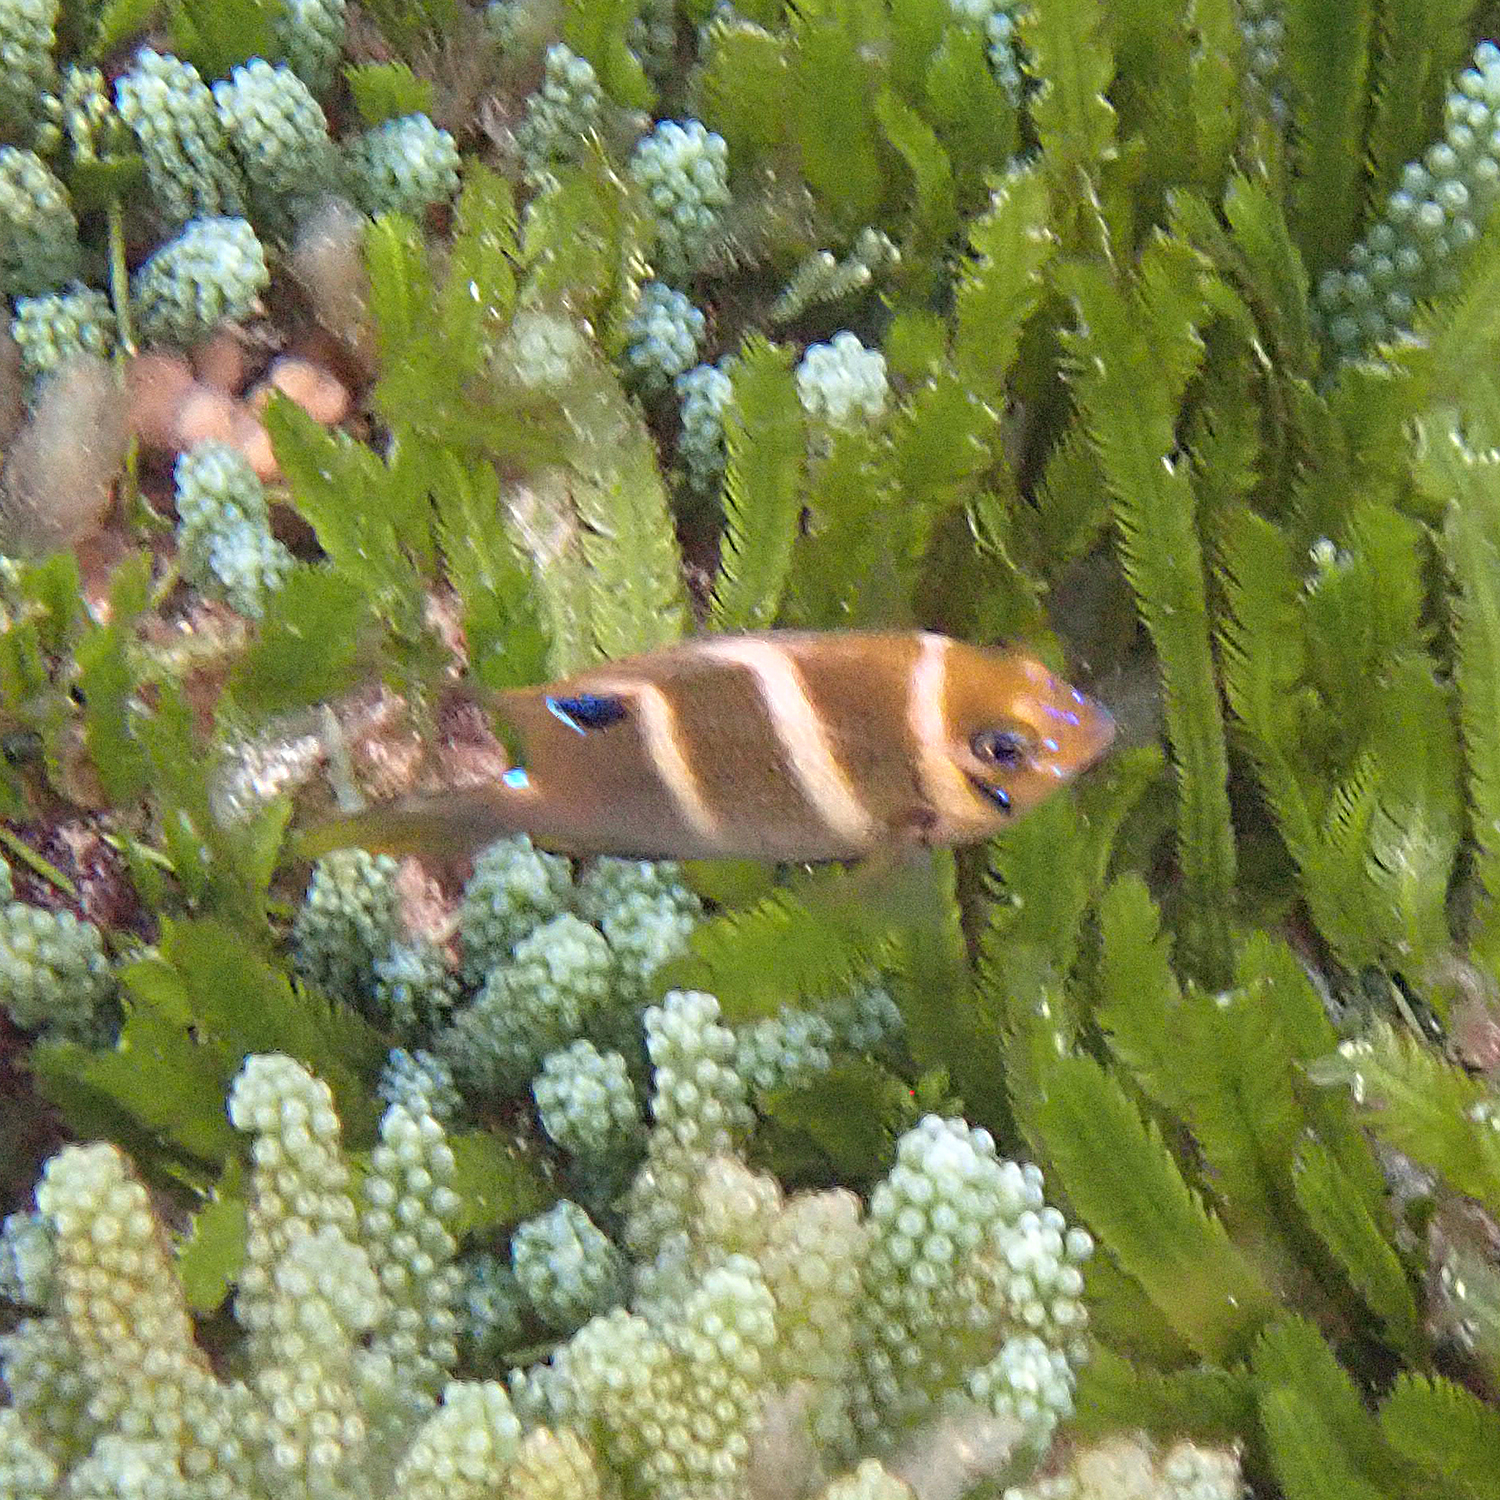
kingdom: Animalia
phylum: Chordata
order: Perciformes
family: Pomacentridae
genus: Parma
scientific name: Parma polylepis
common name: Banded parma
